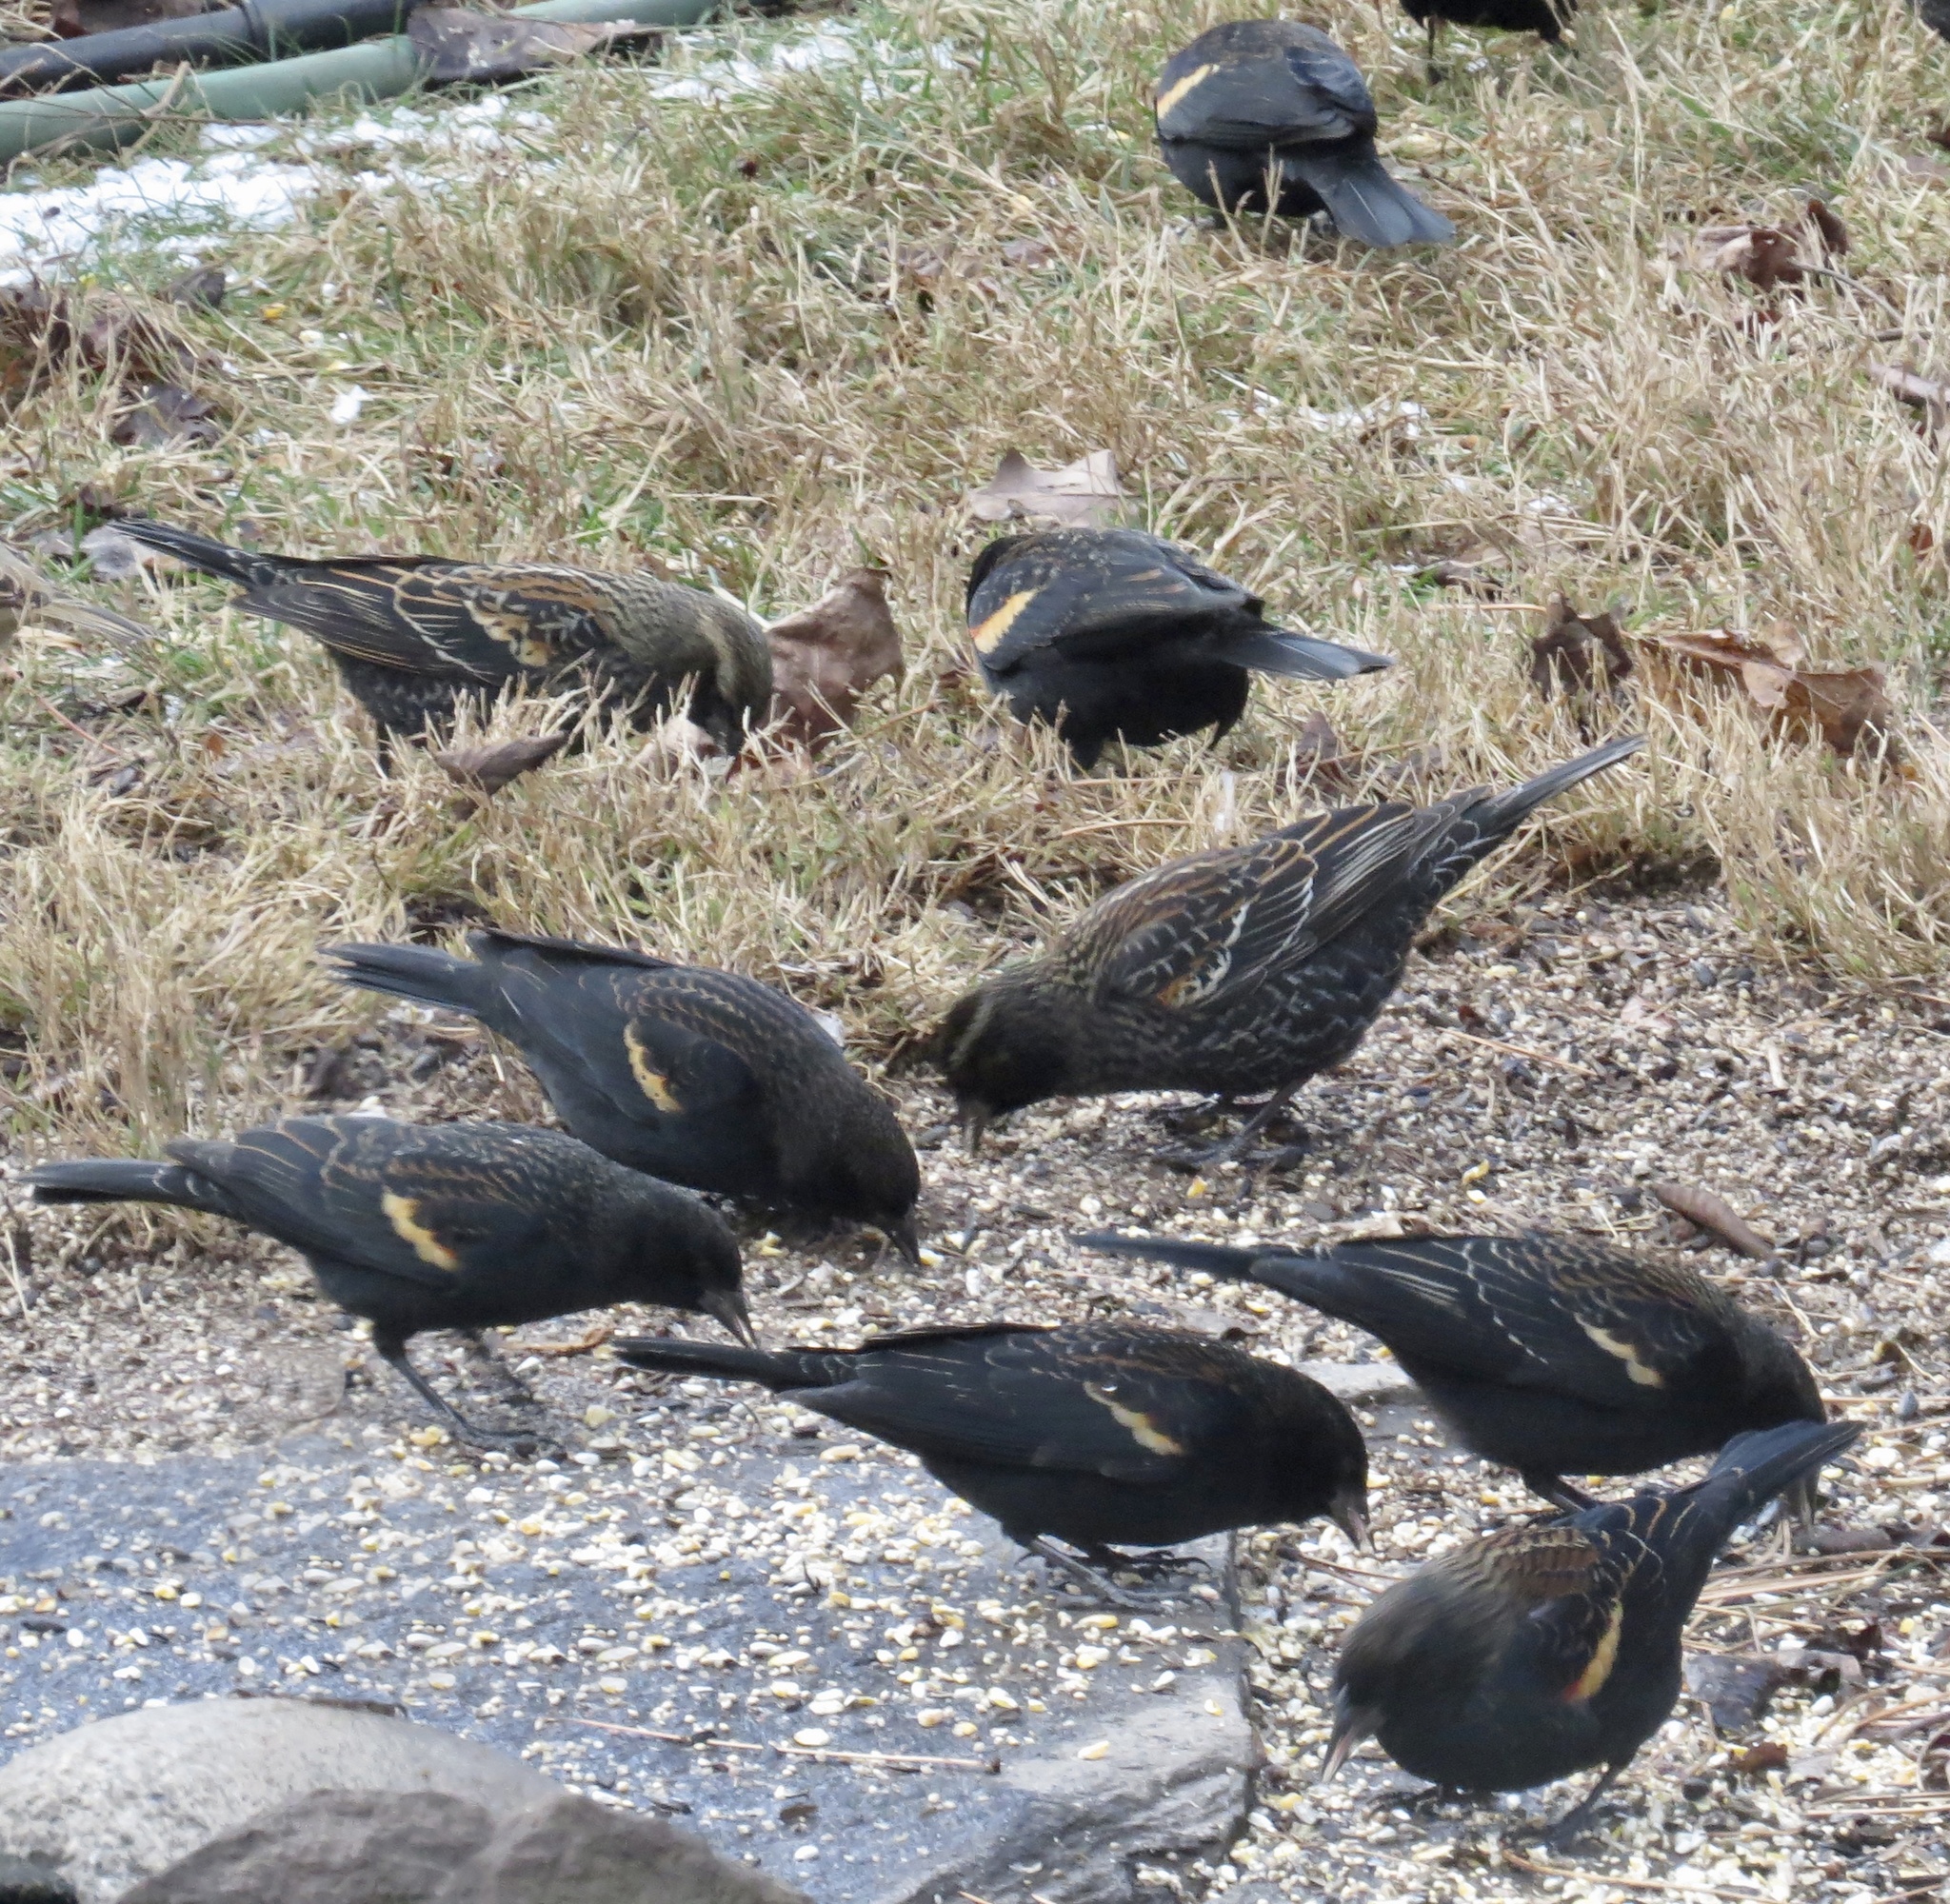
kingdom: Animalia
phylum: Chordata
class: Aves
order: Passeriformes
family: Icteridae
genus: Agelaius
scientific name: Agelaius phoeniceus
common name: Red-winged blackbird
